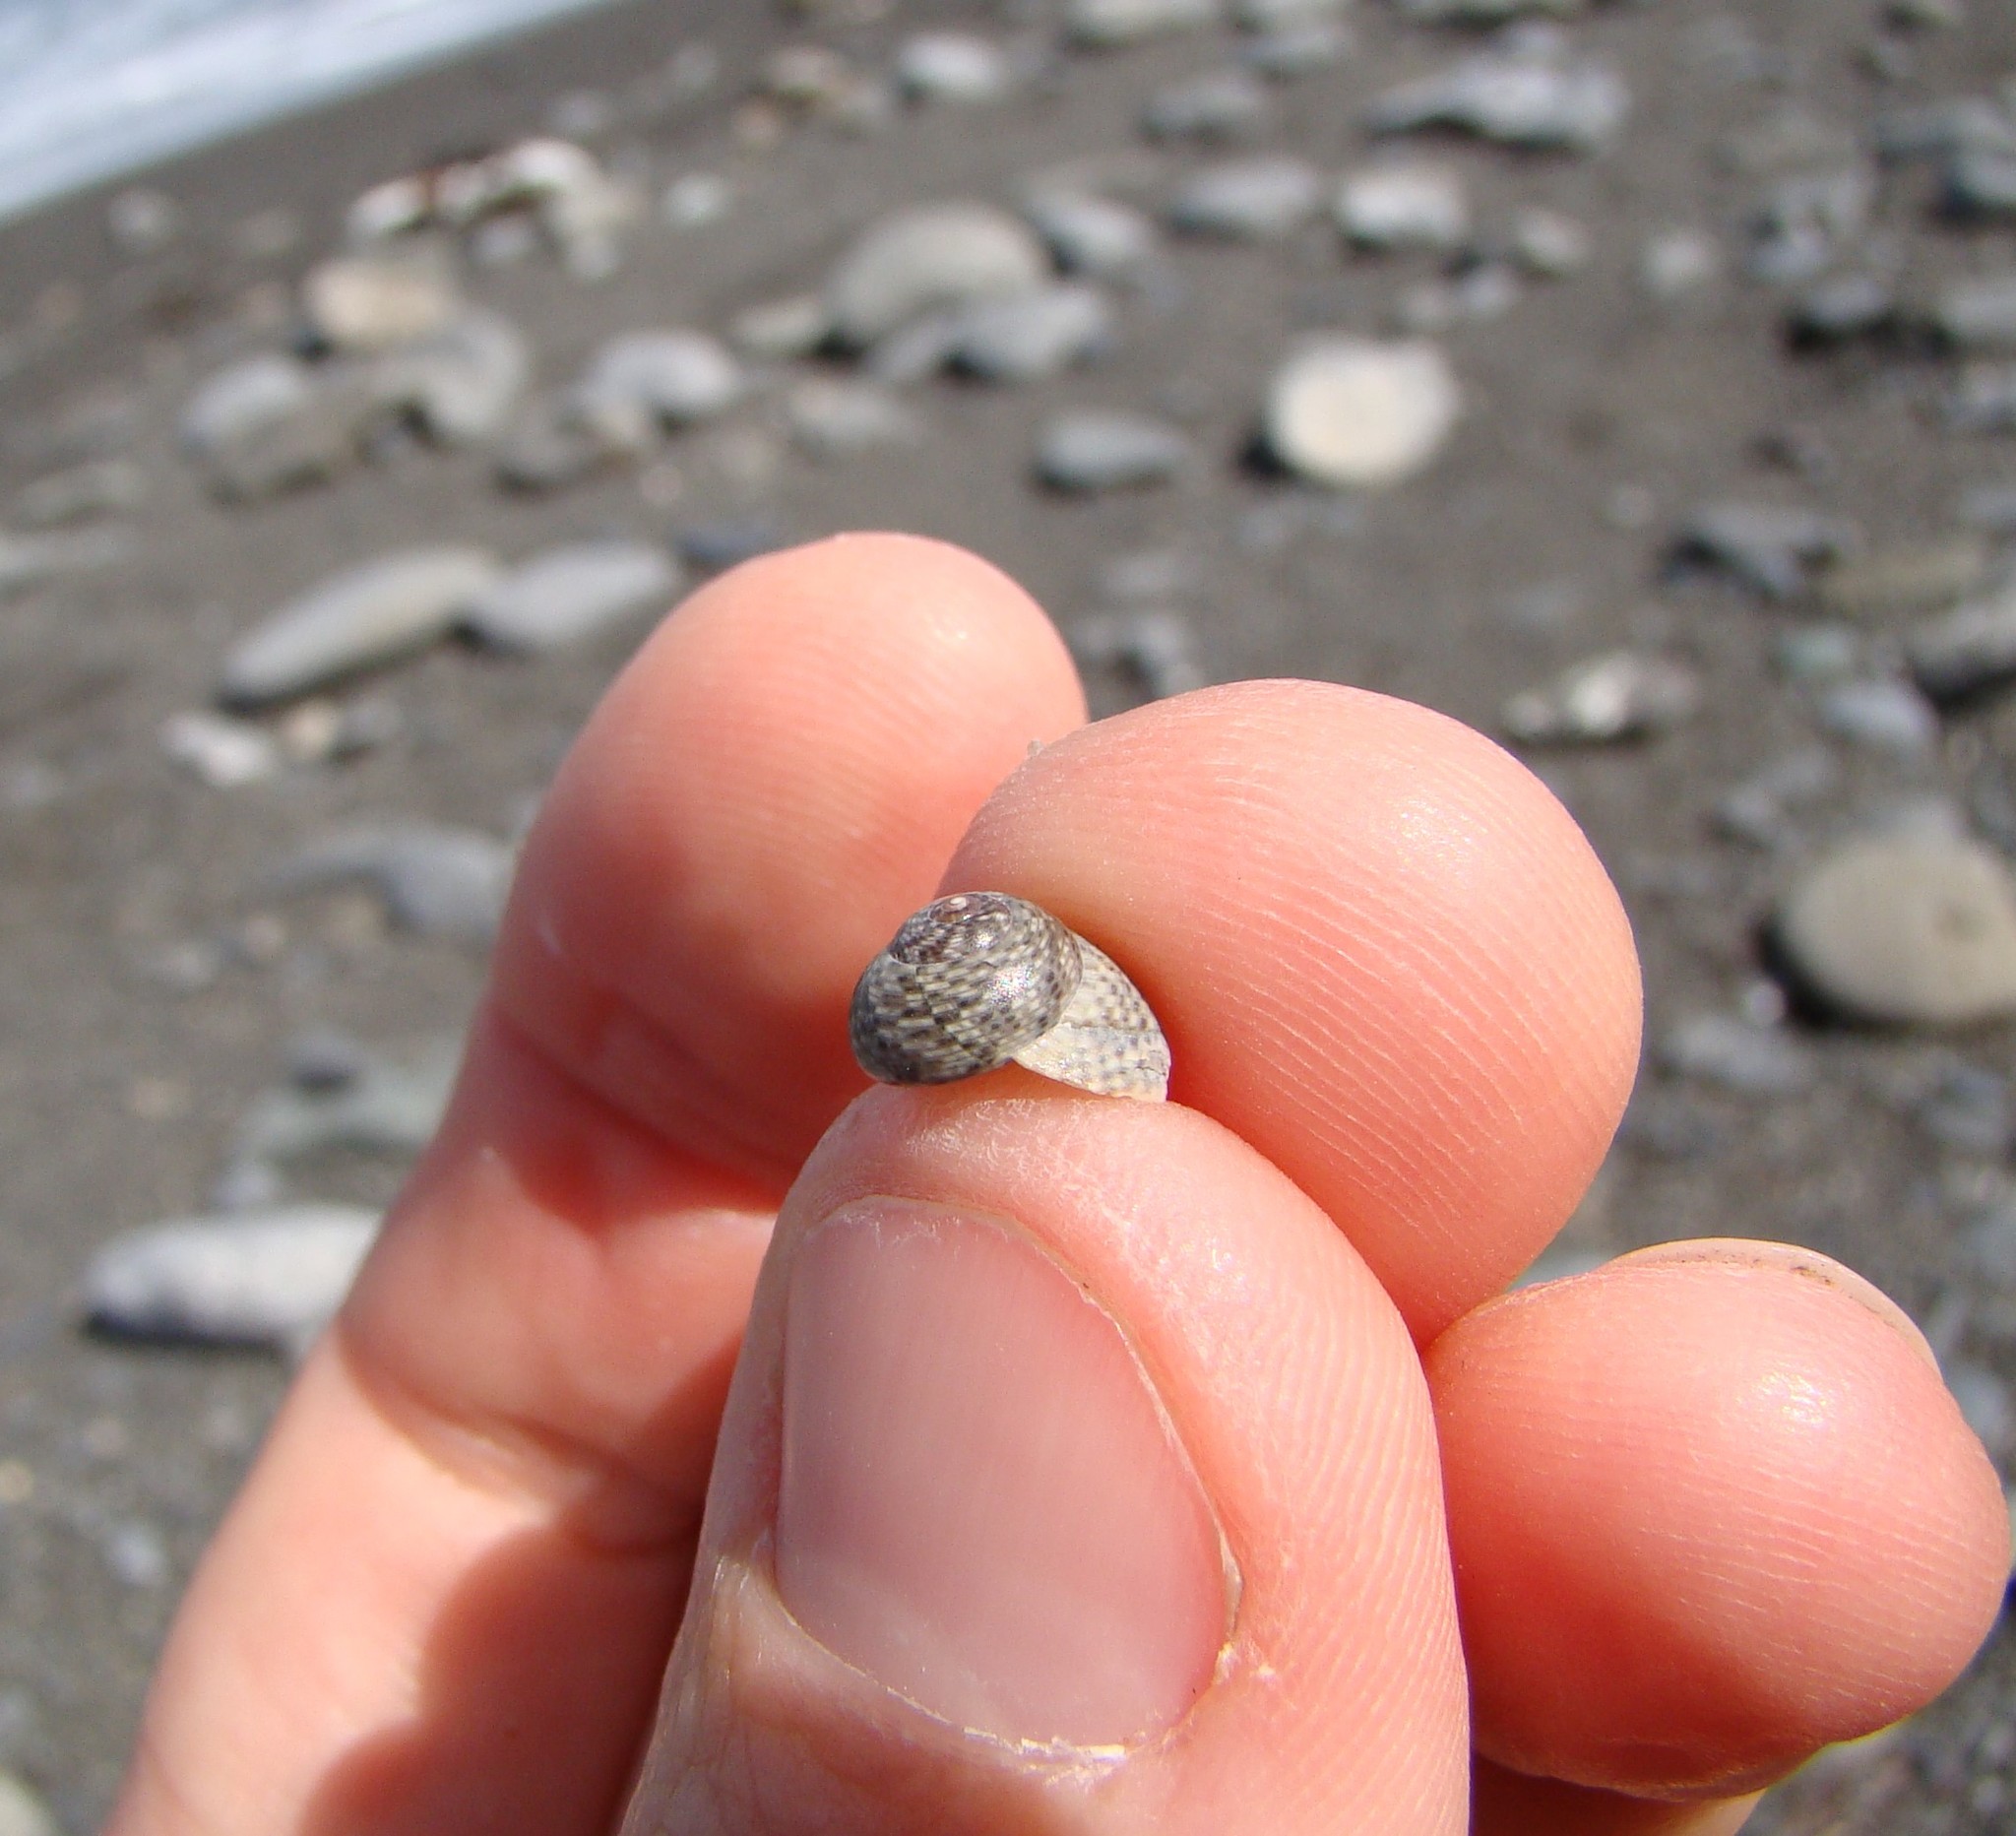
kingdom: Animalia
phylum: Mollusca
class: Gastropoda
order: Trochida
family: Trochidae
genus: Micrelenchus
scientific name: Micrelenchus tessellatus
